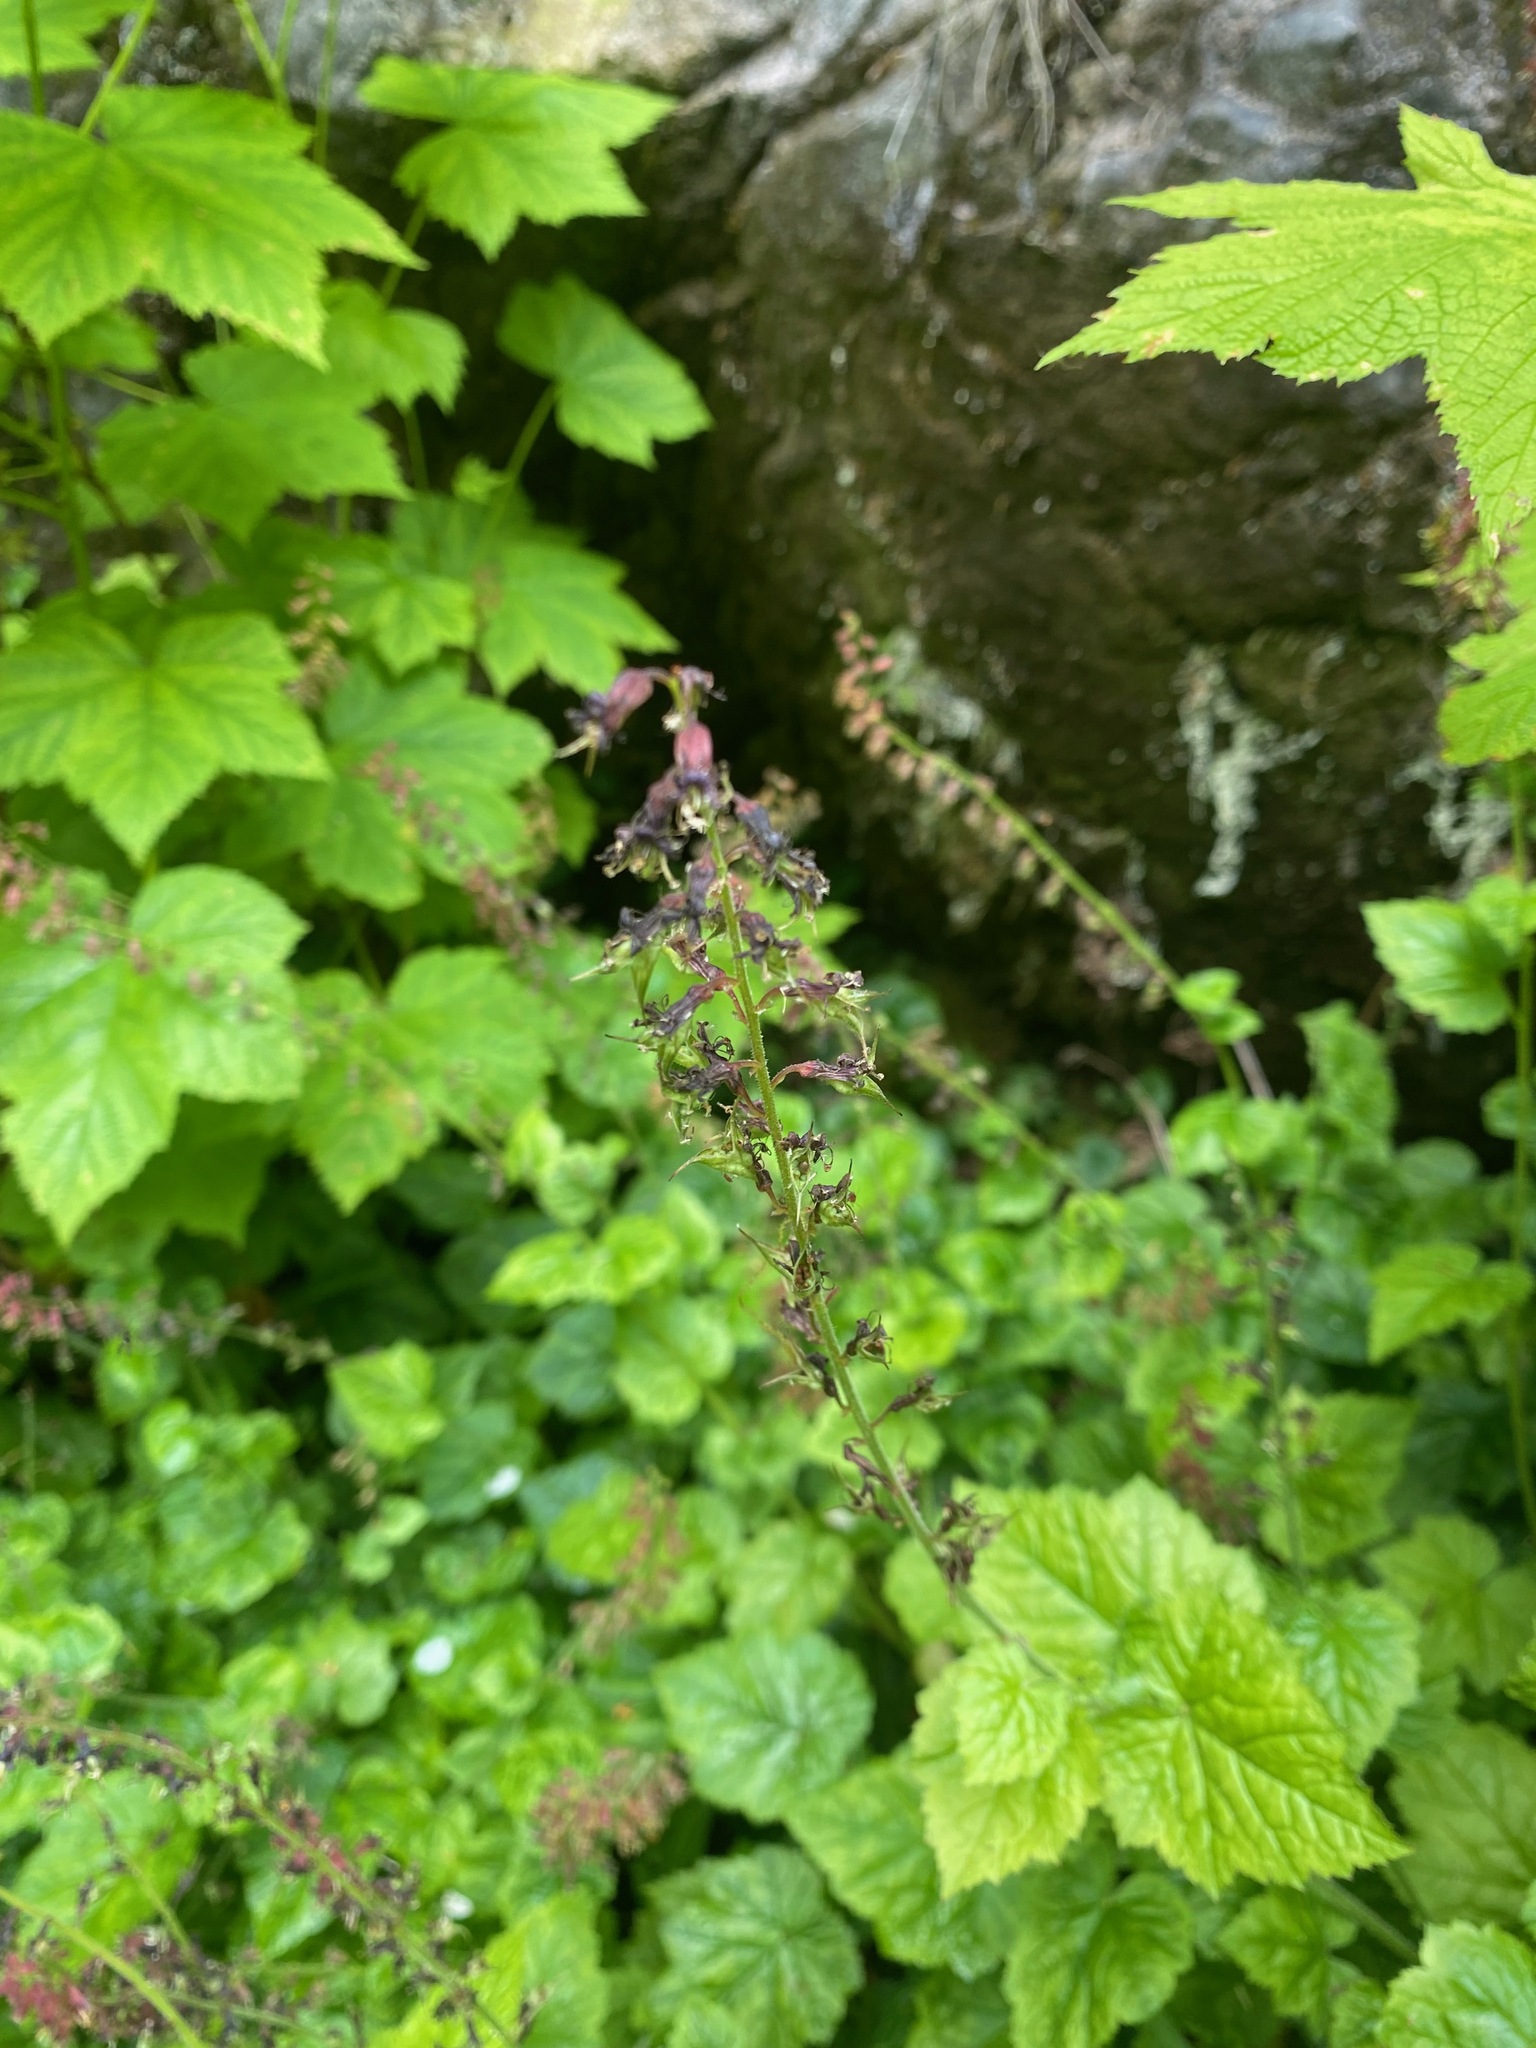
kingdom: Plantae
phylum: Tracheophyta
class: Magnoliopsida
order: Saxifragales
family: Saxifragaceae
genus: Tolmiea
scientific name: Tolmiea menziesii
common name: Pick-a-back-plant
